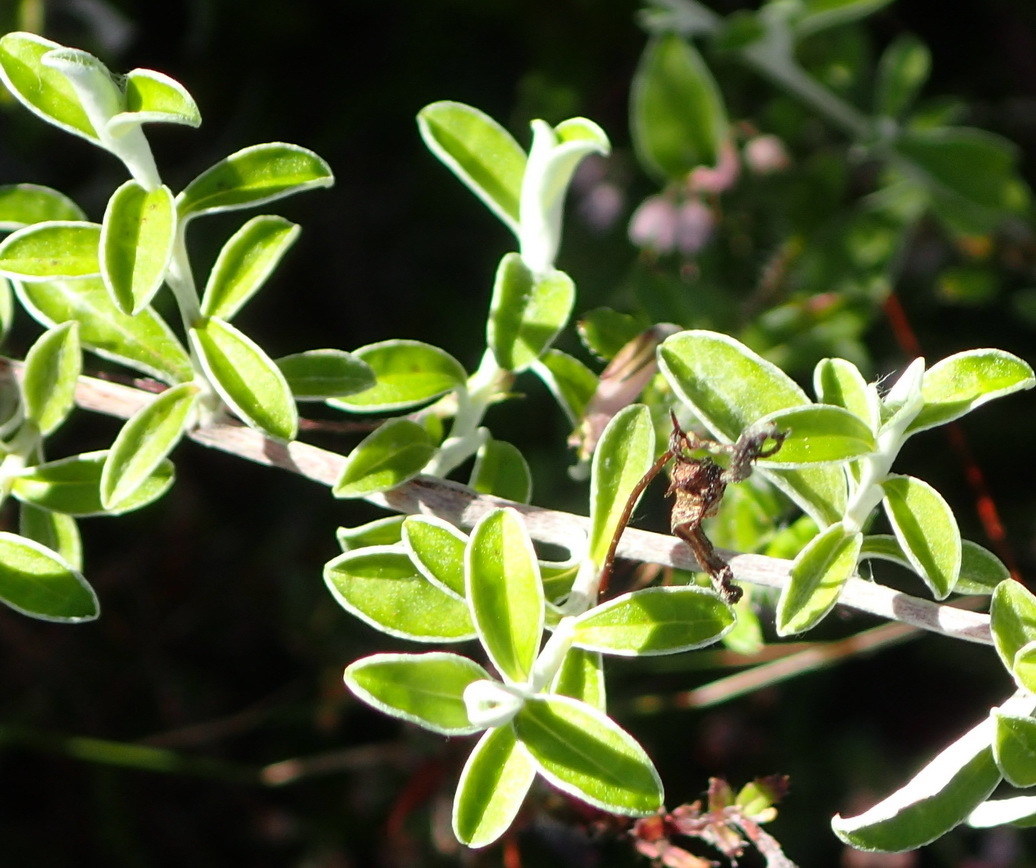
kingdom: Plantae
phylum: Tracheophyta
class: Magnoliopsida
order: Asterales
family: Asteraceae
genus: Plecostachys
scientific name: Plecostachys serpyllifolia
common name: Petite licorice
